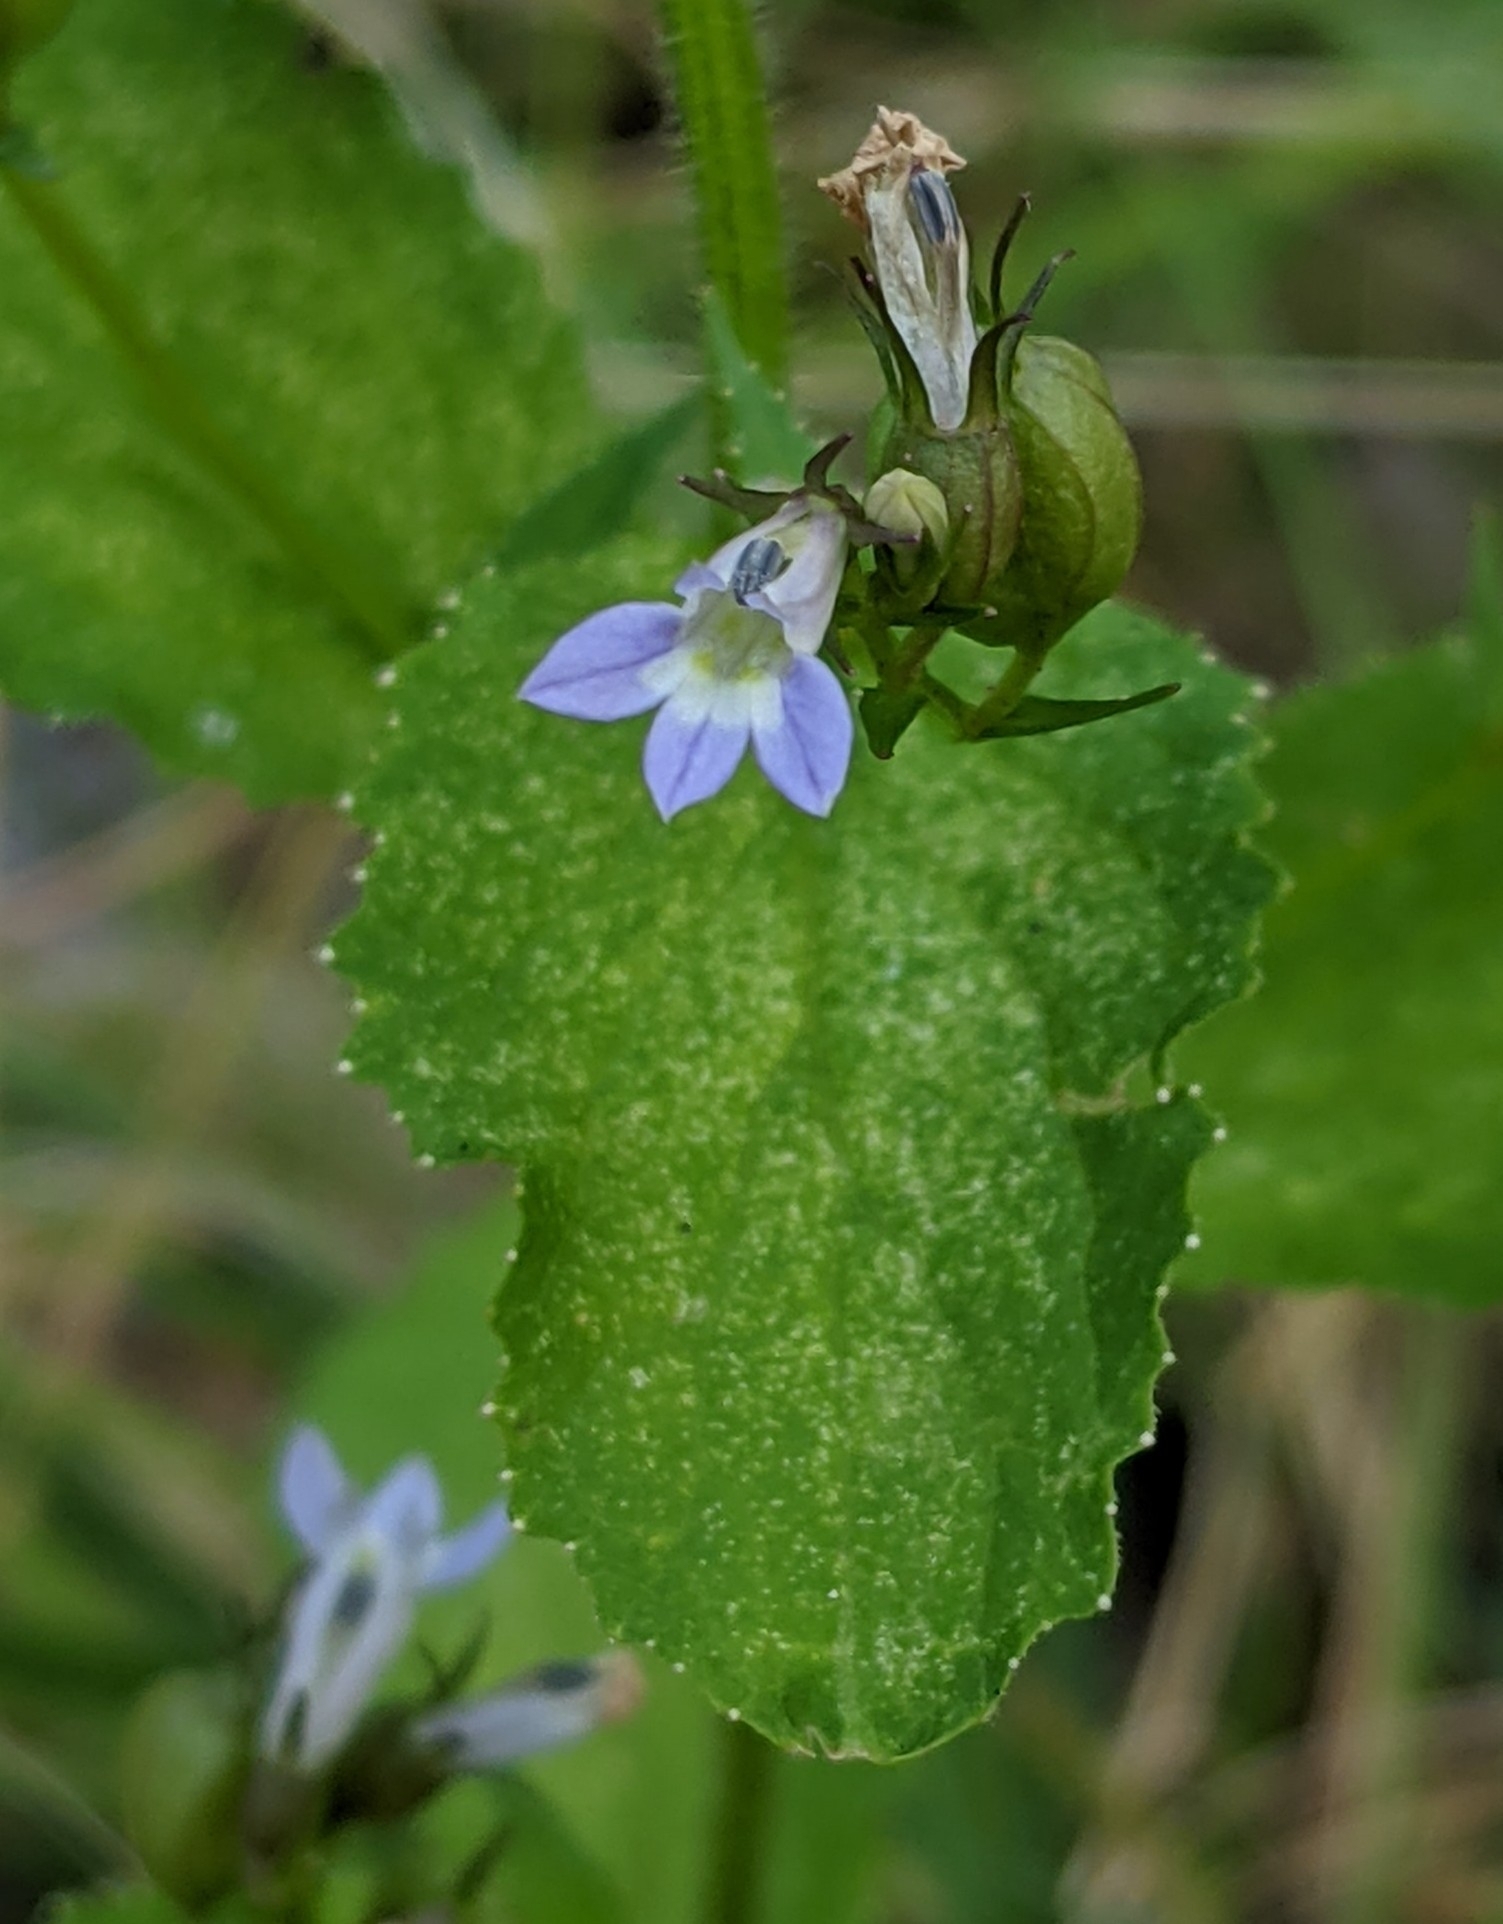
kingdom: Plantae
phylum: Tracheophyta
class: Magnoliopsida
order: Asterales
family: Campanulaceae
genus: Lobelia
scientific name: Lobelia inflata
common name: Indian tobacco
